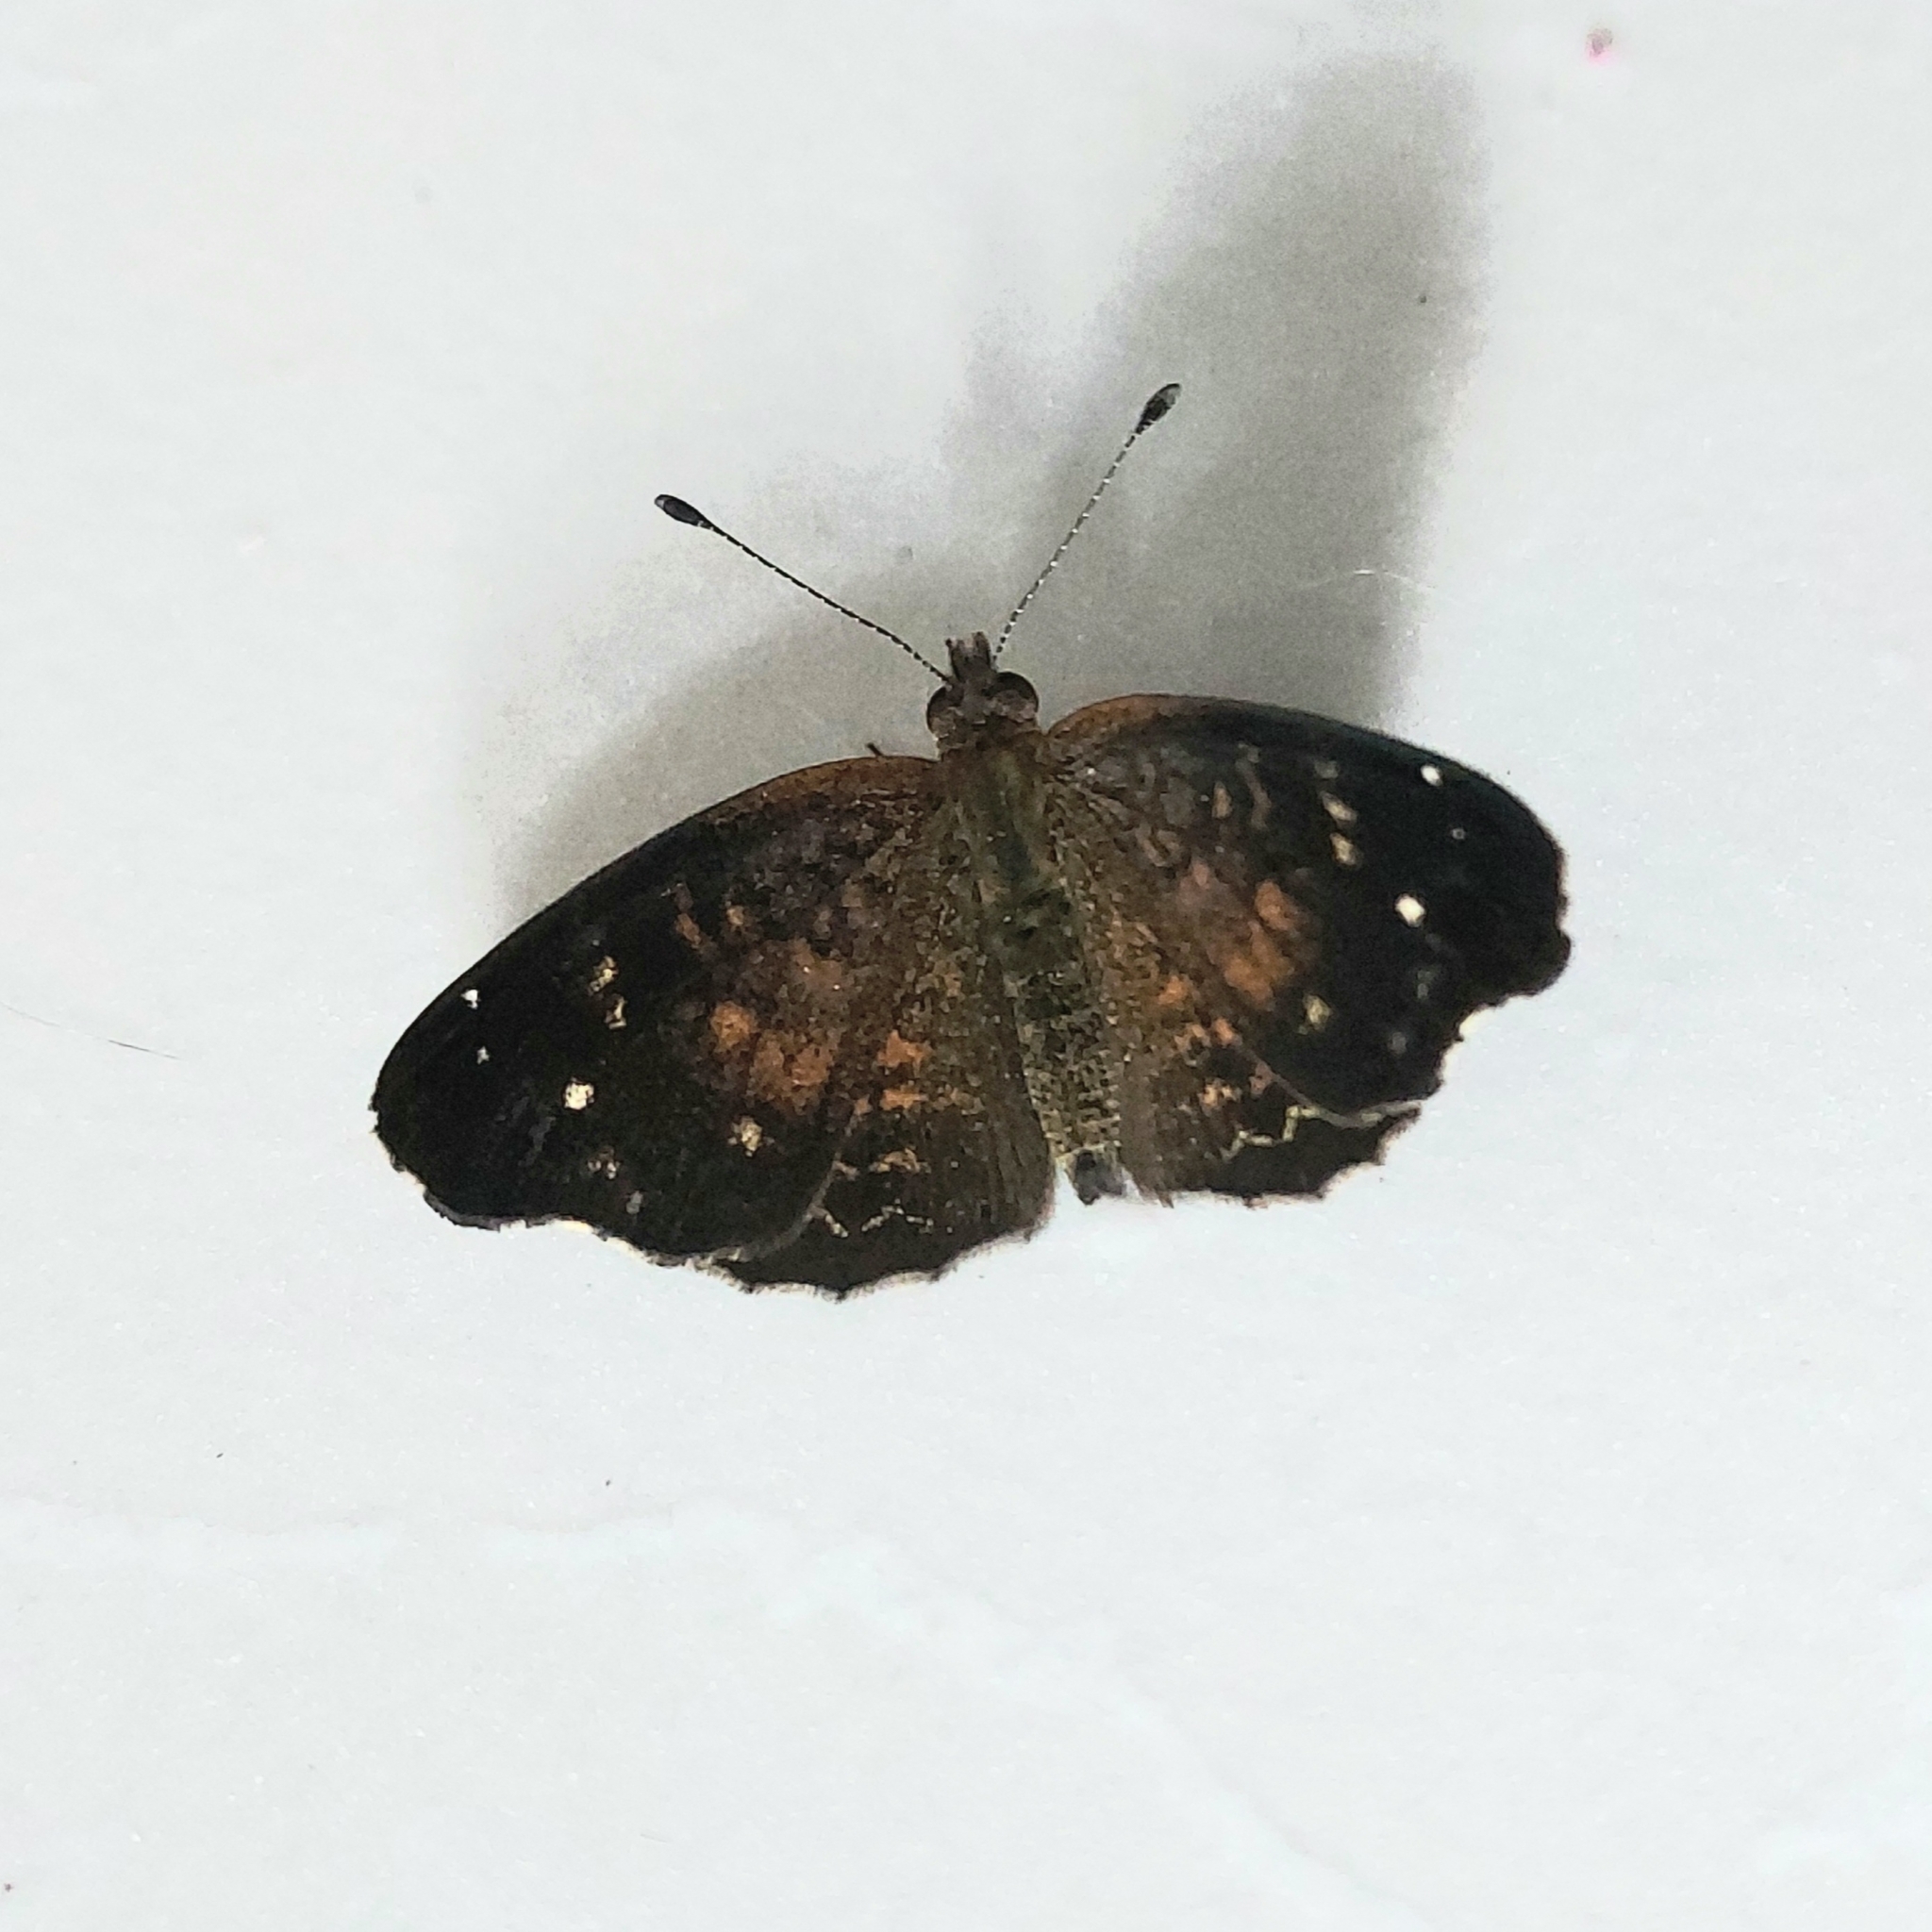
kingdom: Animalia
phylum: Arthropoda
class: Insecta
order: Lepidoptera
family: Nymphalidae
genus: Anthanassa
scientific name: Anthanassa atronia
